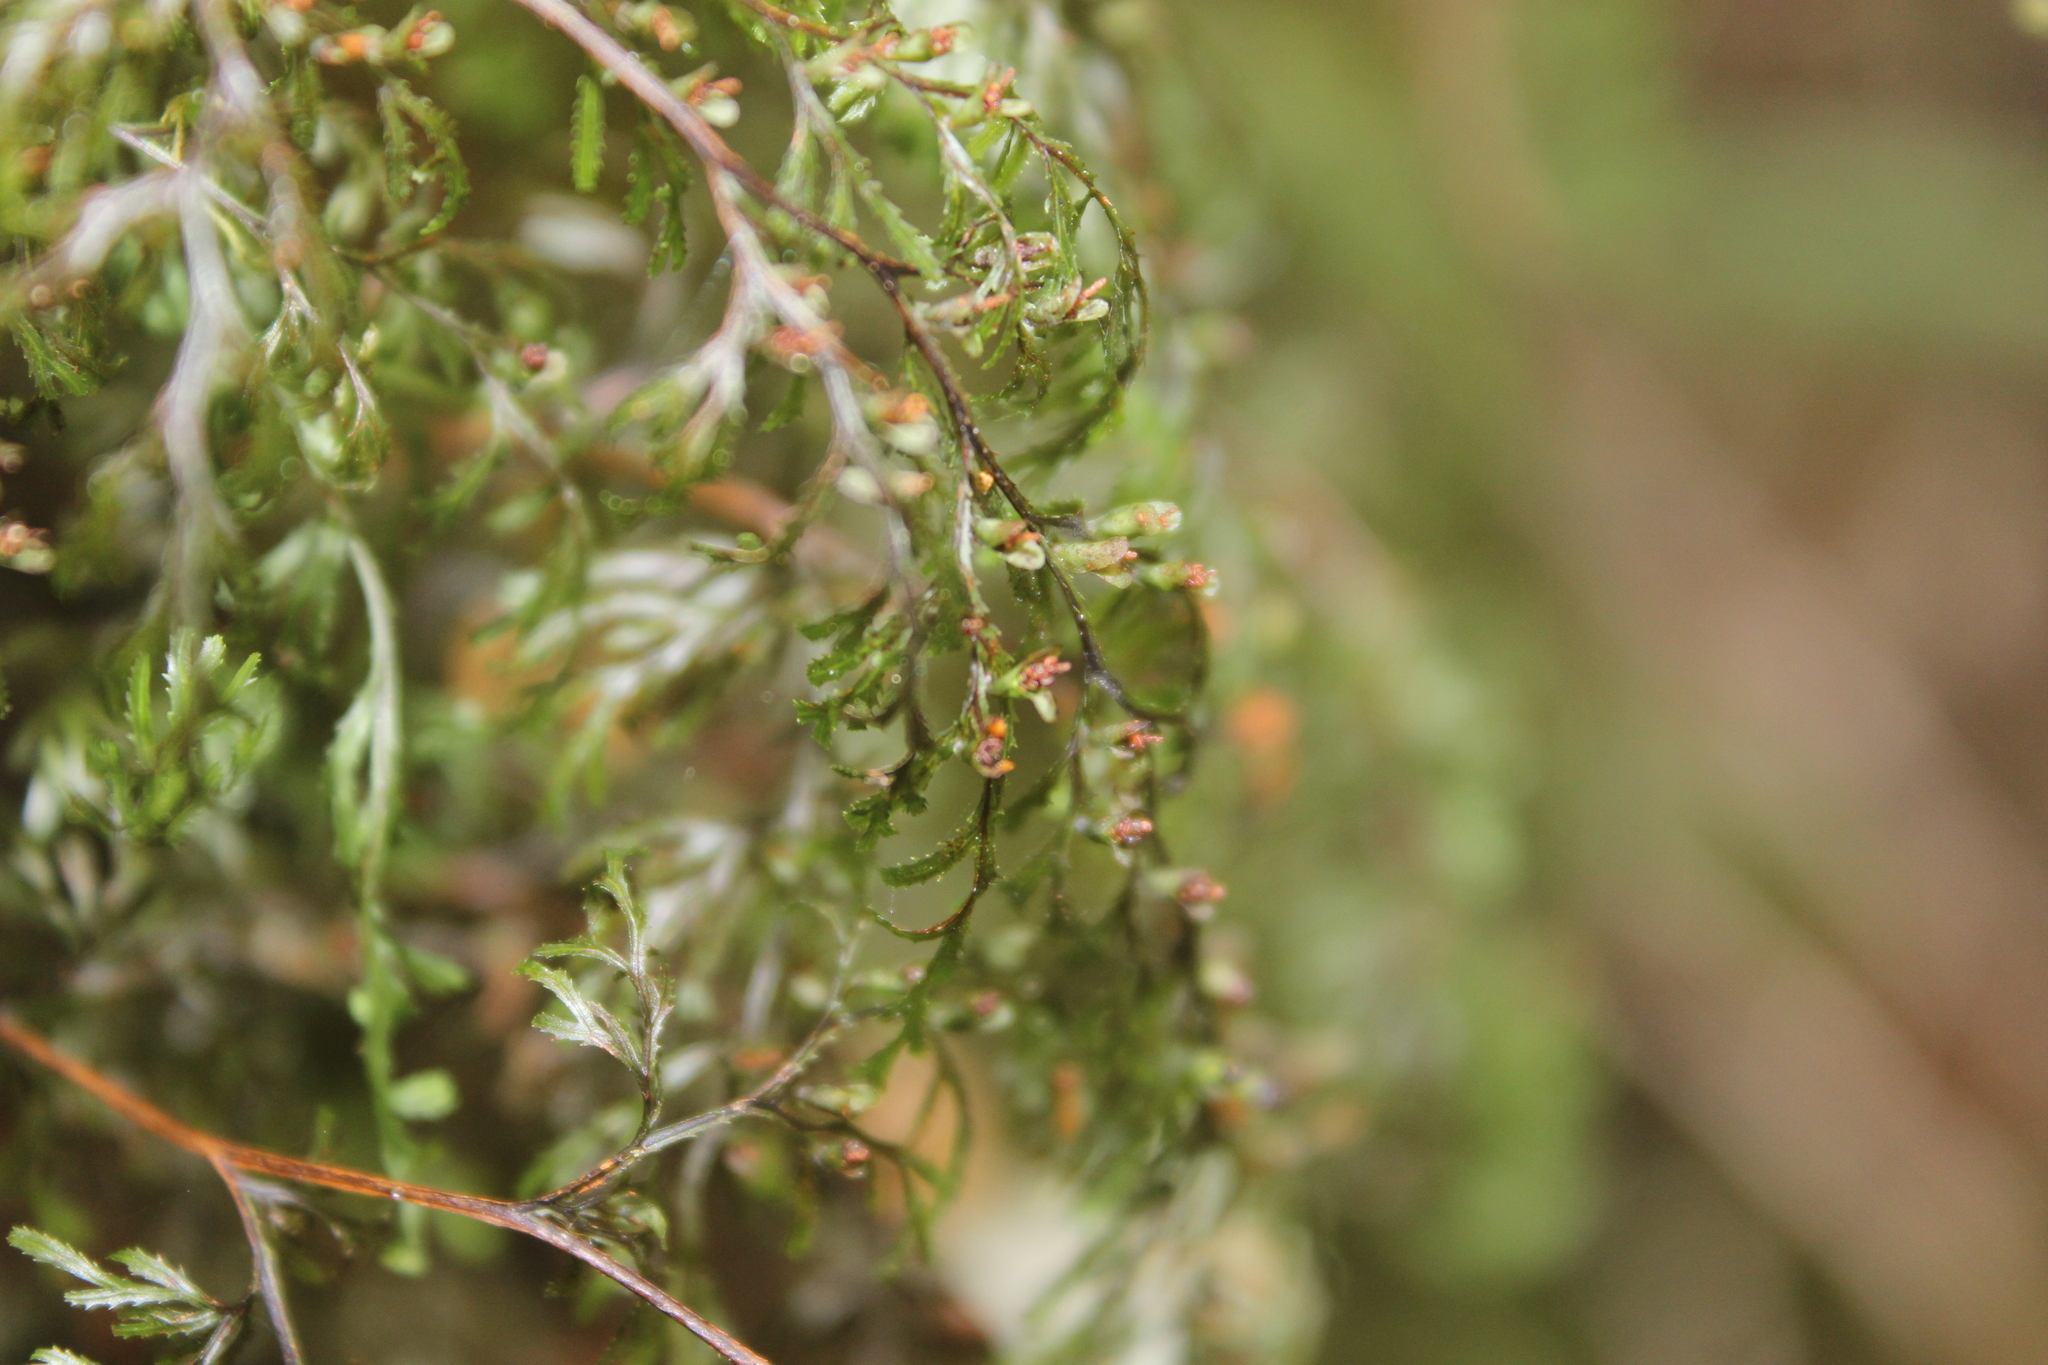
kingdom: Plantae
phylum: Tracheophyta
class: Polypodiopsida
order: Hymenophyllales
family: Hymenophyllaceae
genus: Hymenophyllum
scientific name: Hymenophyllum multifidum
